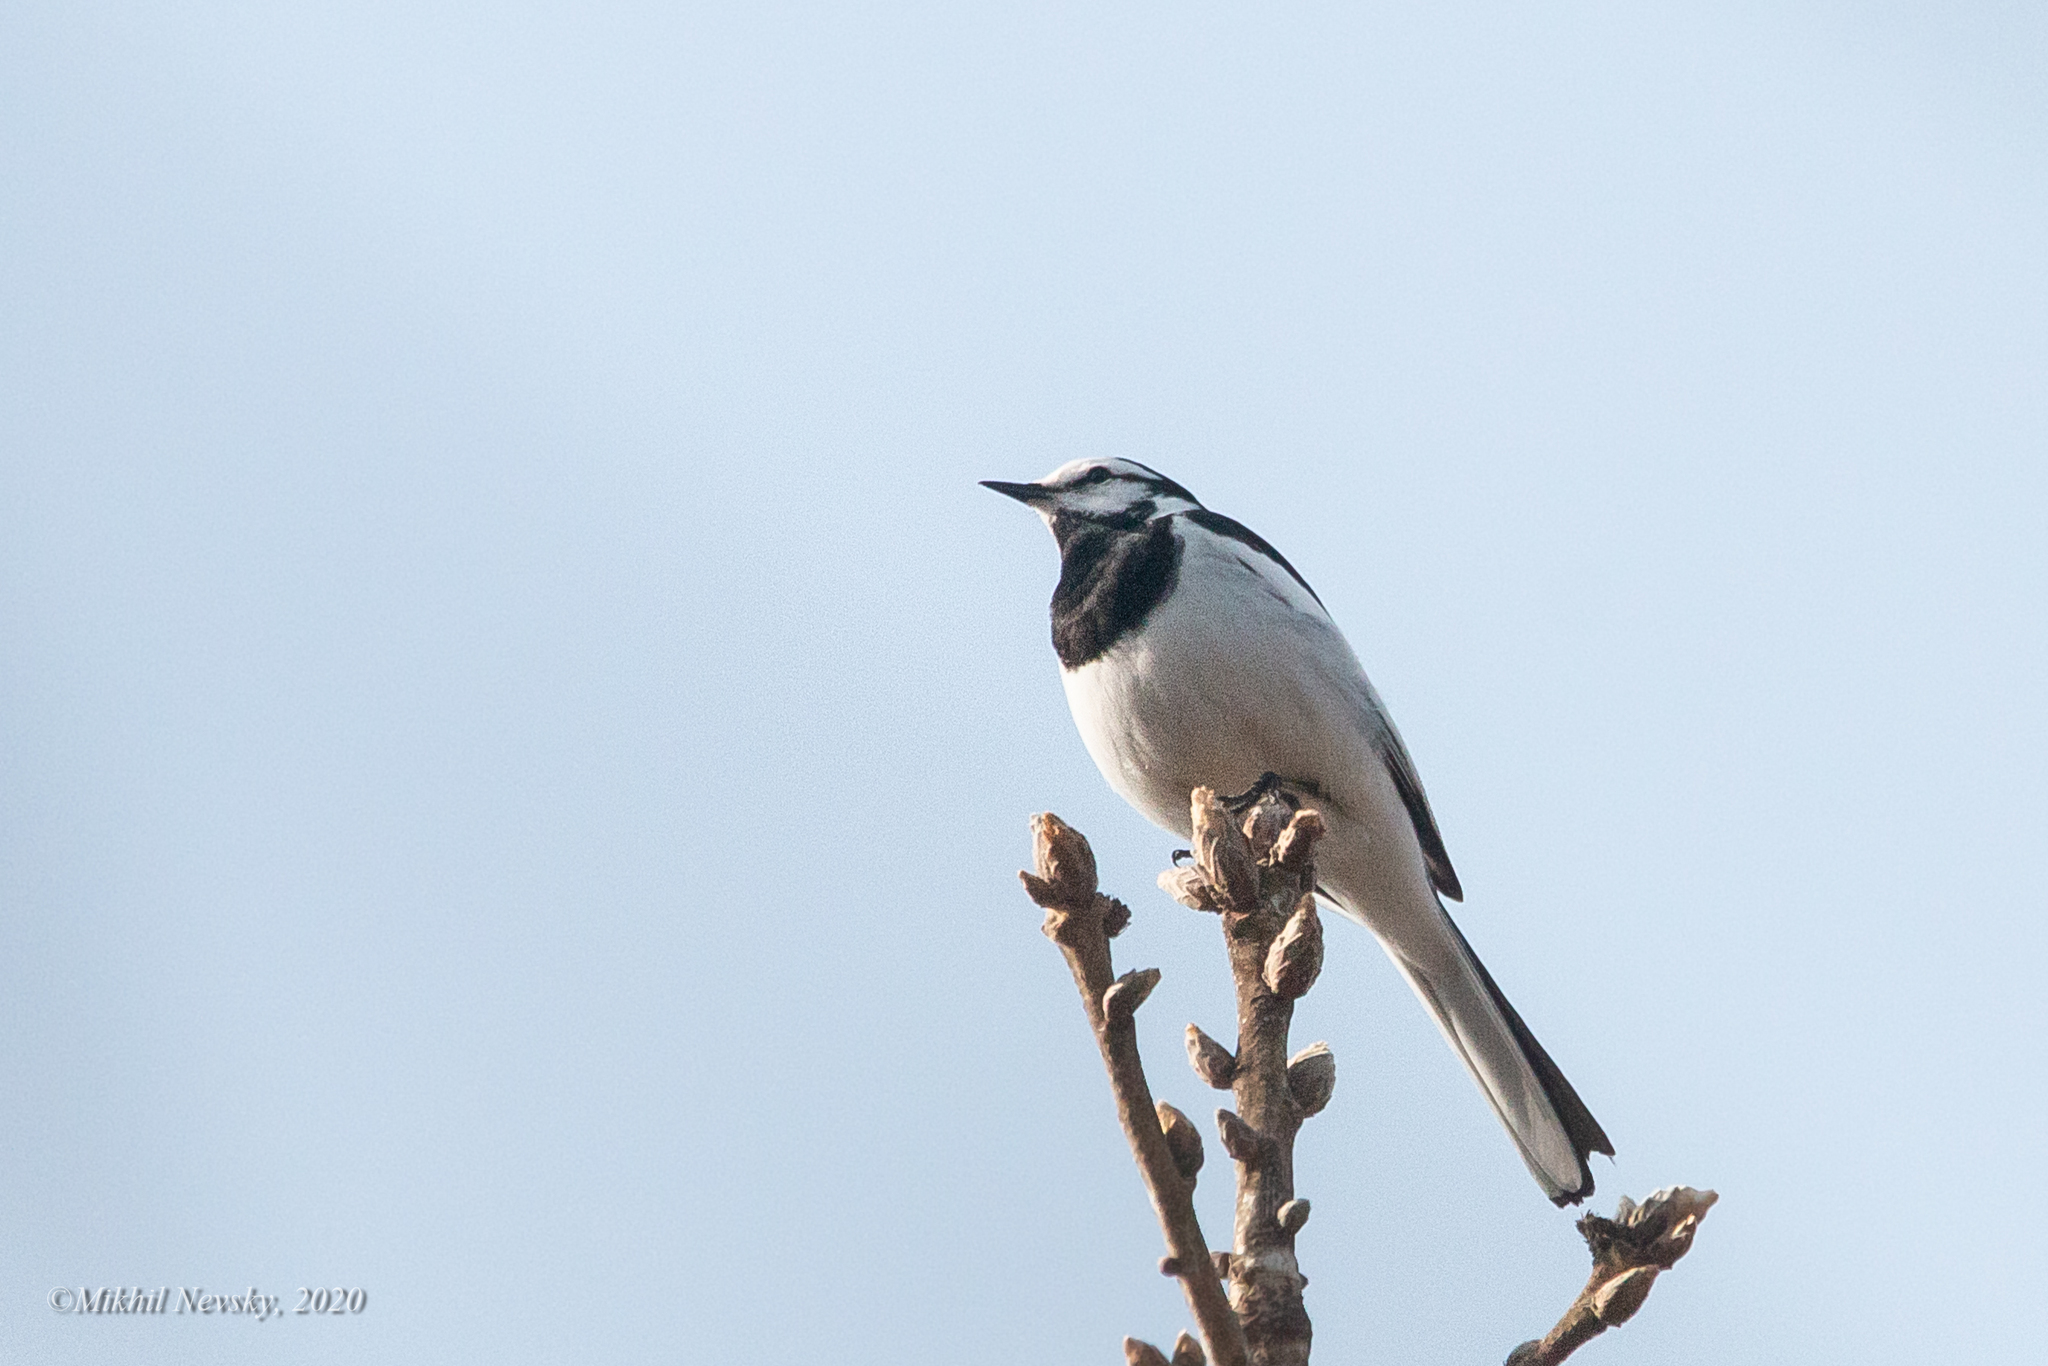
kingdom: Animalia
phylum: Chordata
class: Aves
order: Passeriformes
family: Motacillidae
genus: Motacilla
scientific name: Motacilla alba
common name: White wagtail
